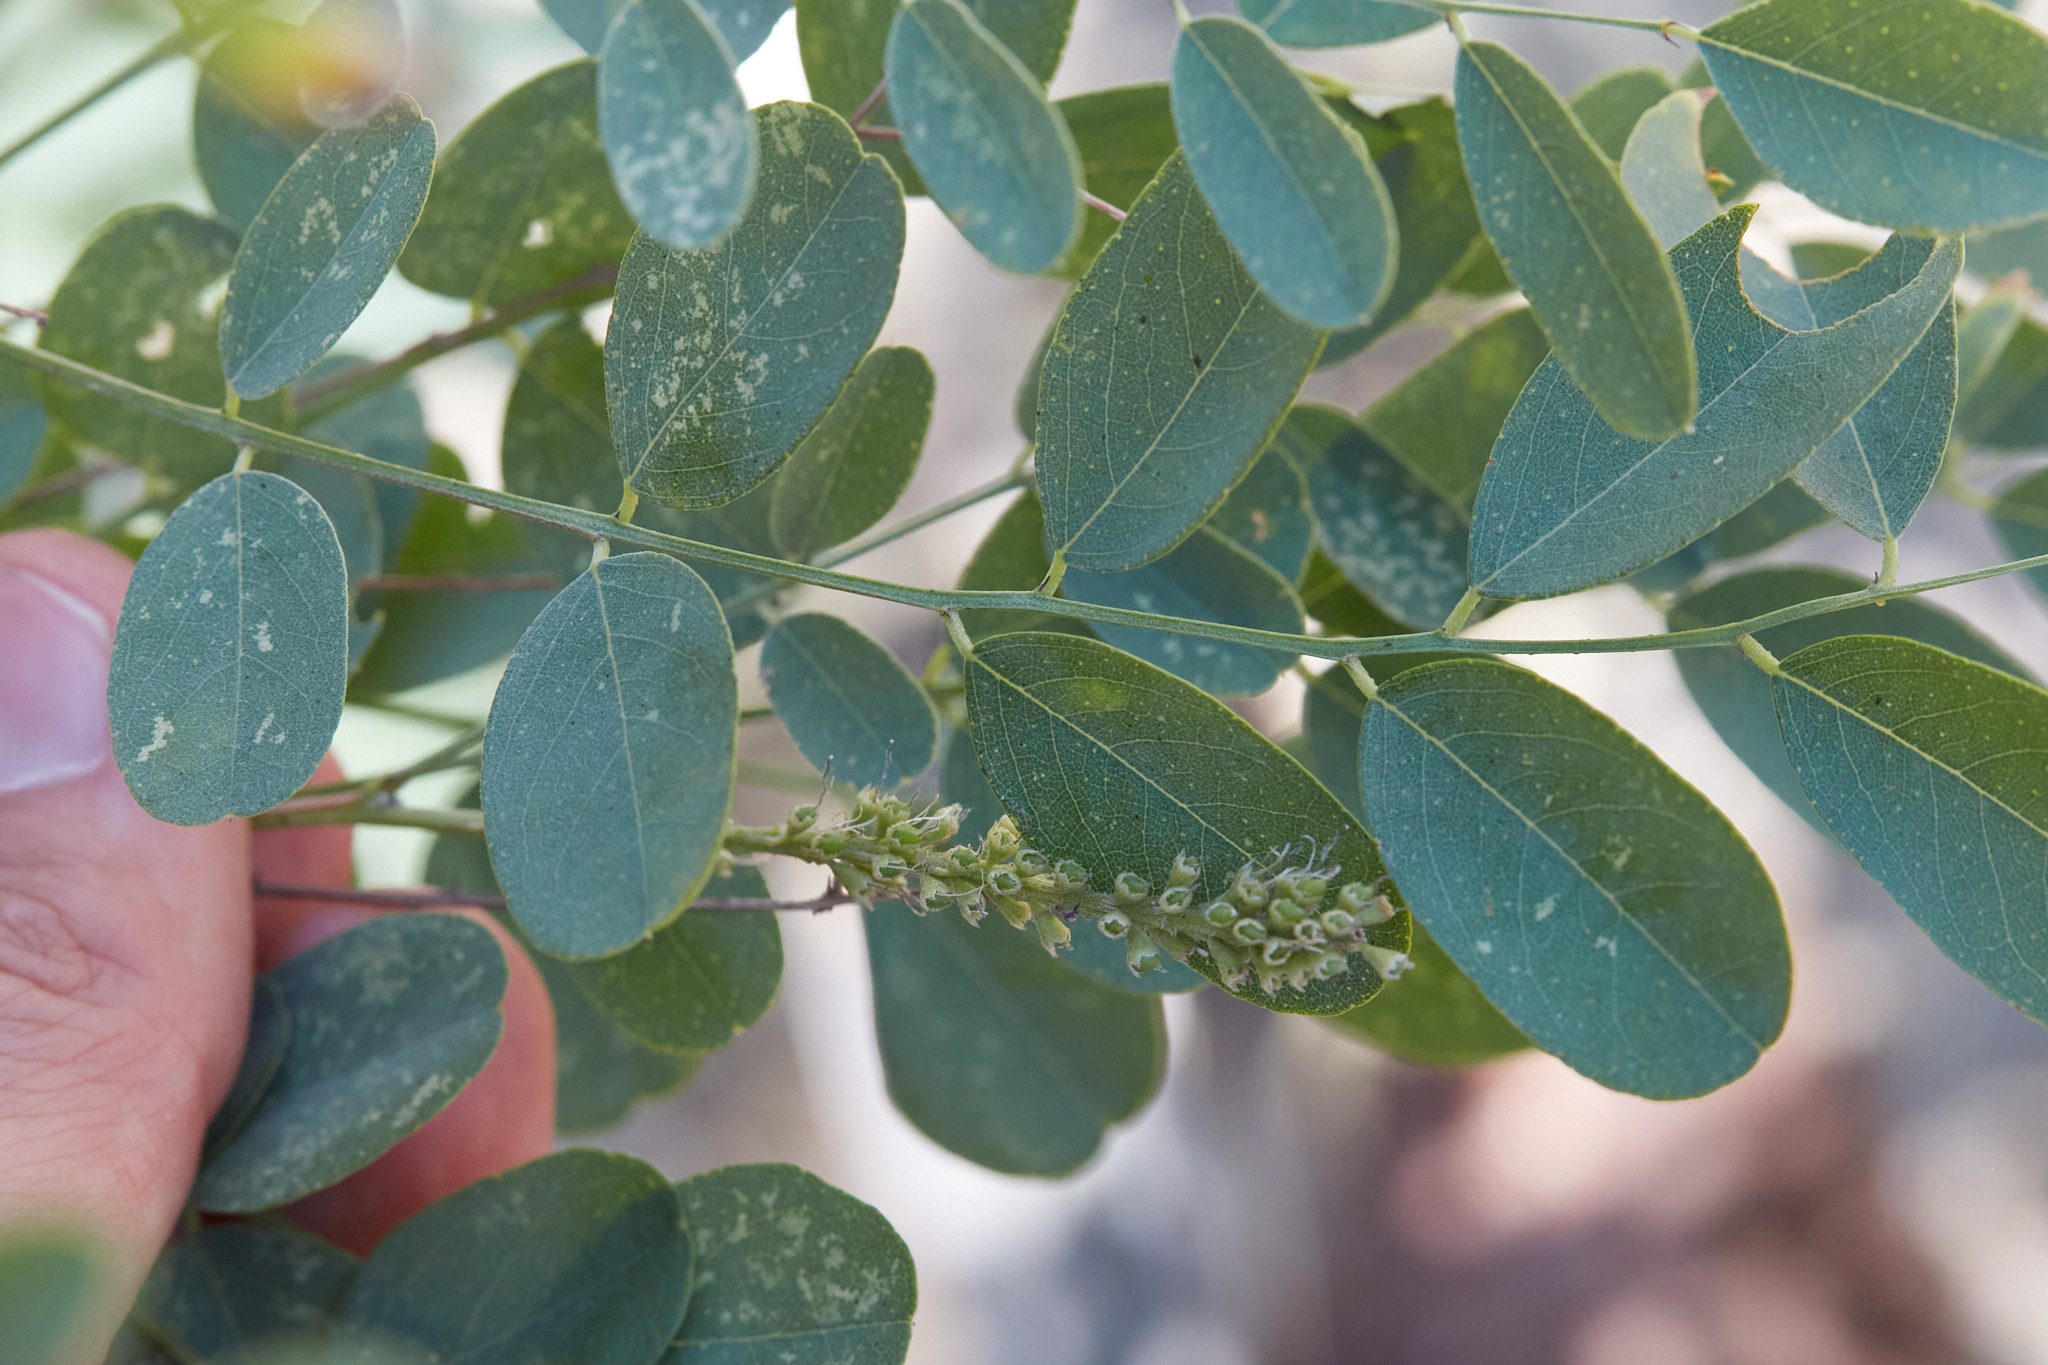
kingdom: Plantae
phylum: Tracheophyta
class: Magnoliopsida
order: Fabales
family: Fabaceae
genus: Amorpha
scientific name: Amorpha fruticosa
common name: False indigo
